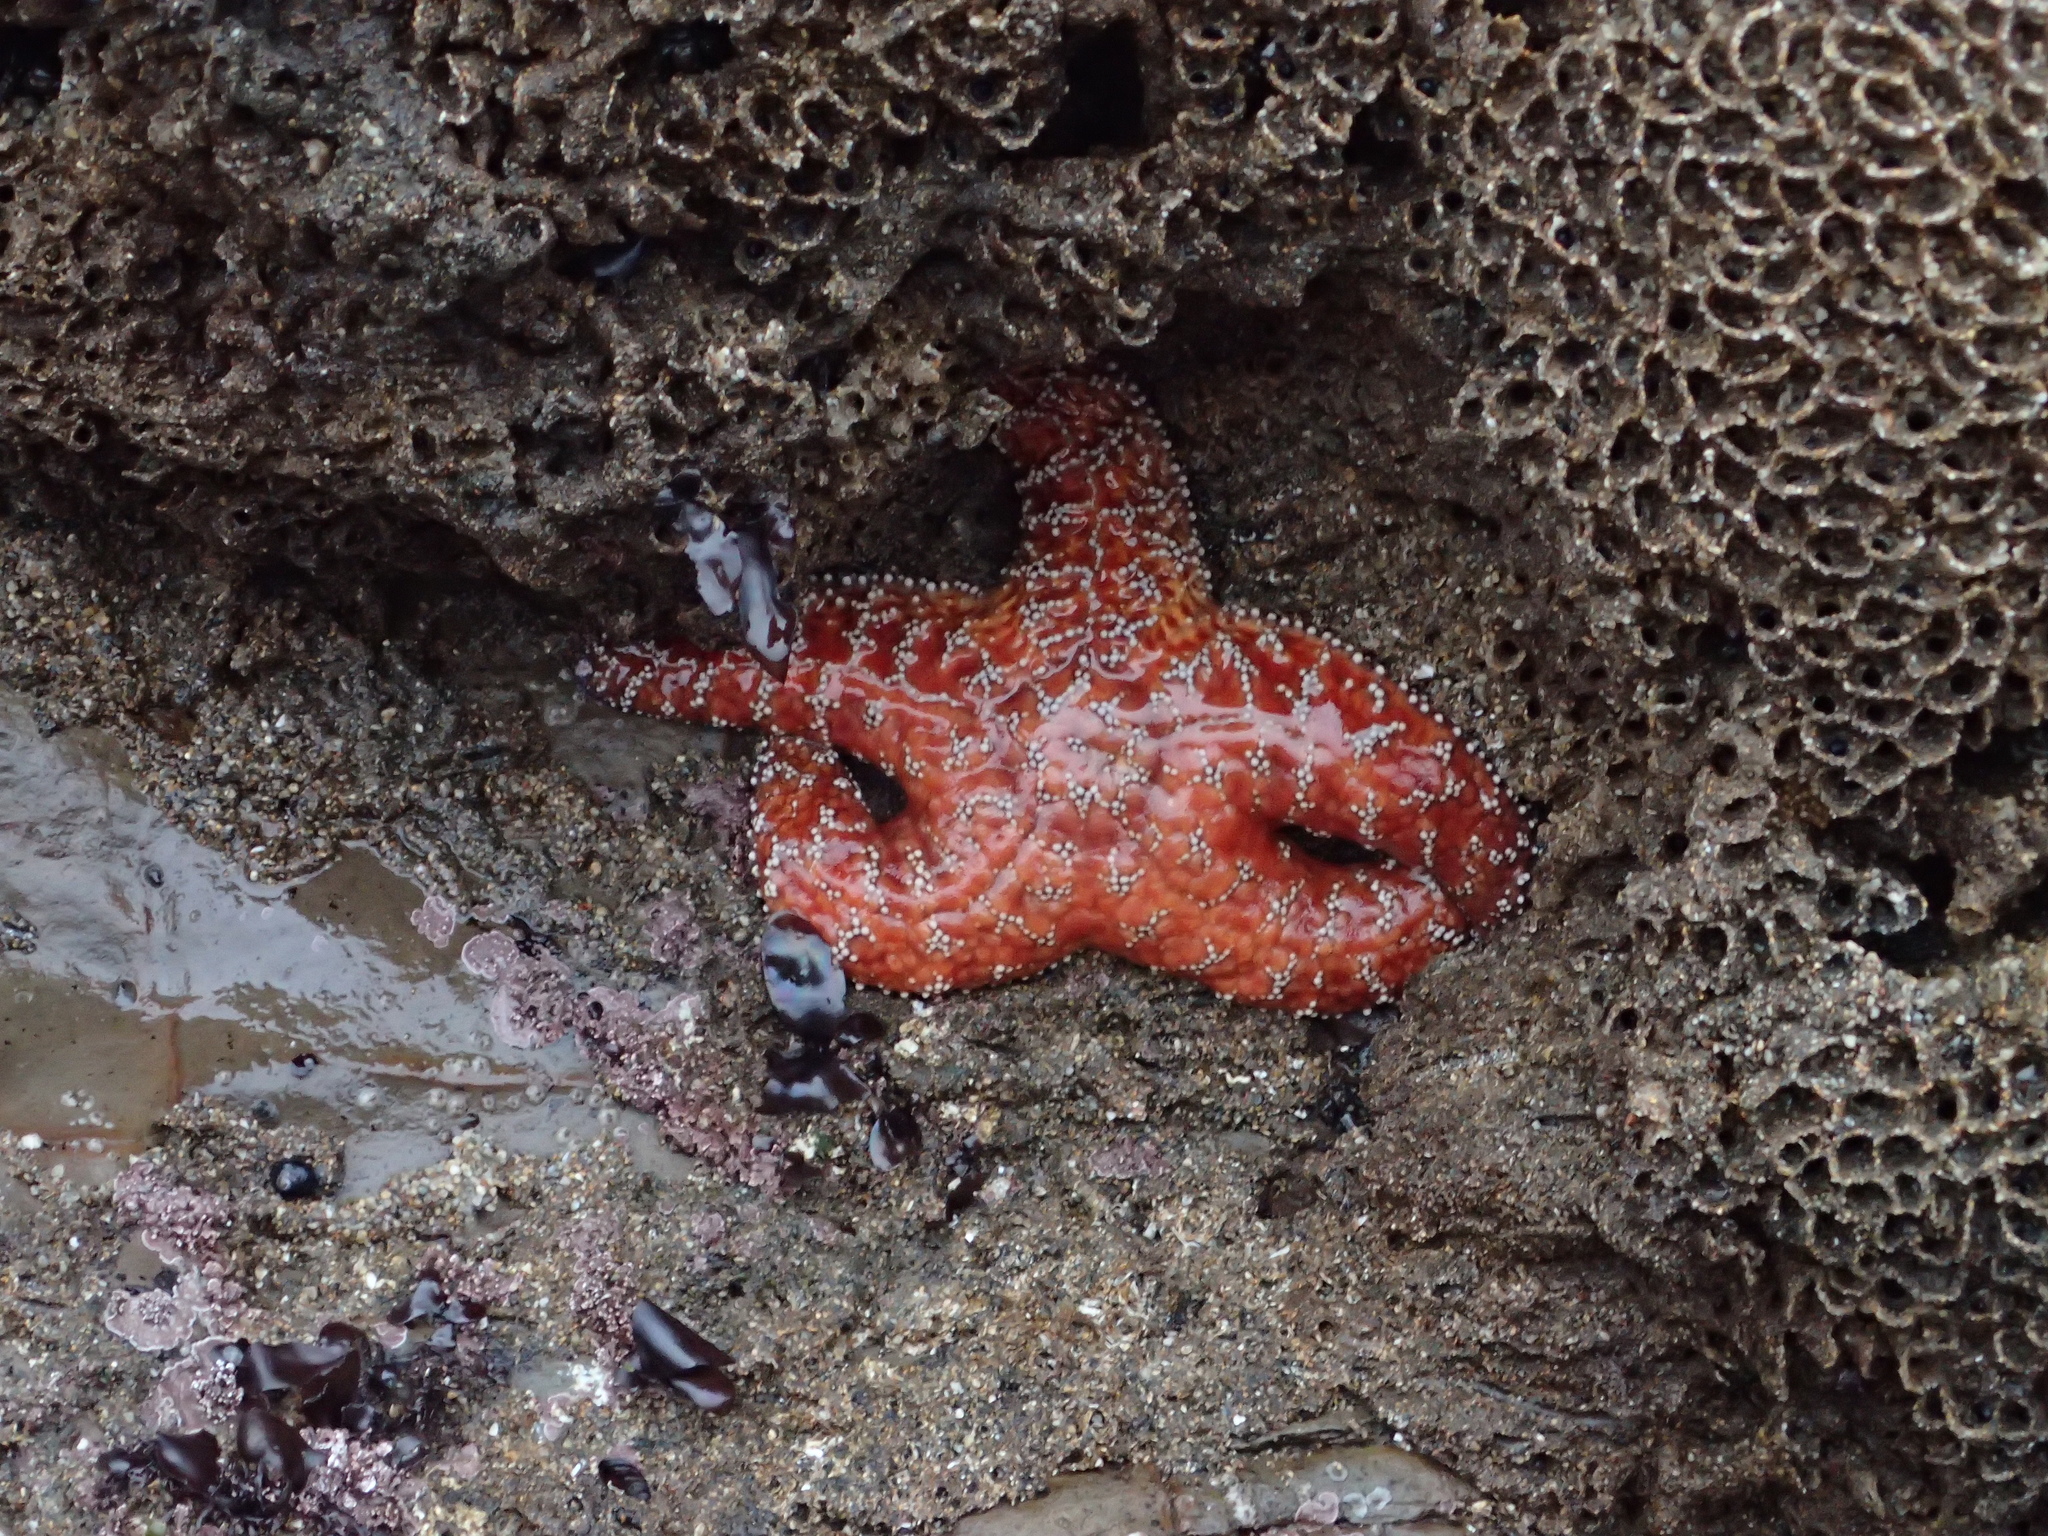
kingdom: Animalia
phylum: Echinodermata
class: Asteroidea
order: Forcipulatida
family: Asteriidae
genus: Pisaster
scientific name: Pisaster ochraceus
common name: Ochre stars
